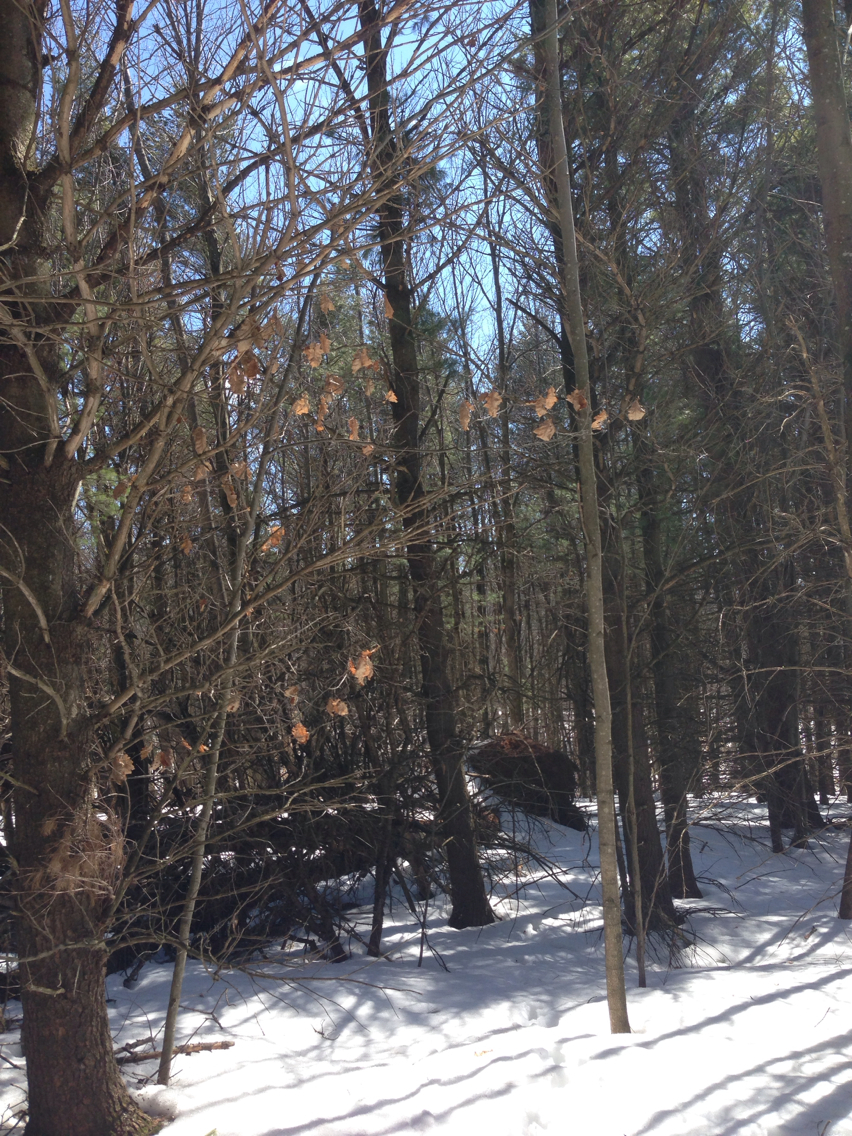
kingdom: Plantae
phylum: Tracheophyta
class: Magnoliopsida
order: Fagales
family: Fagaceae
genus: Quercus
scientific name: Quercus rubra
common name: Red oak
